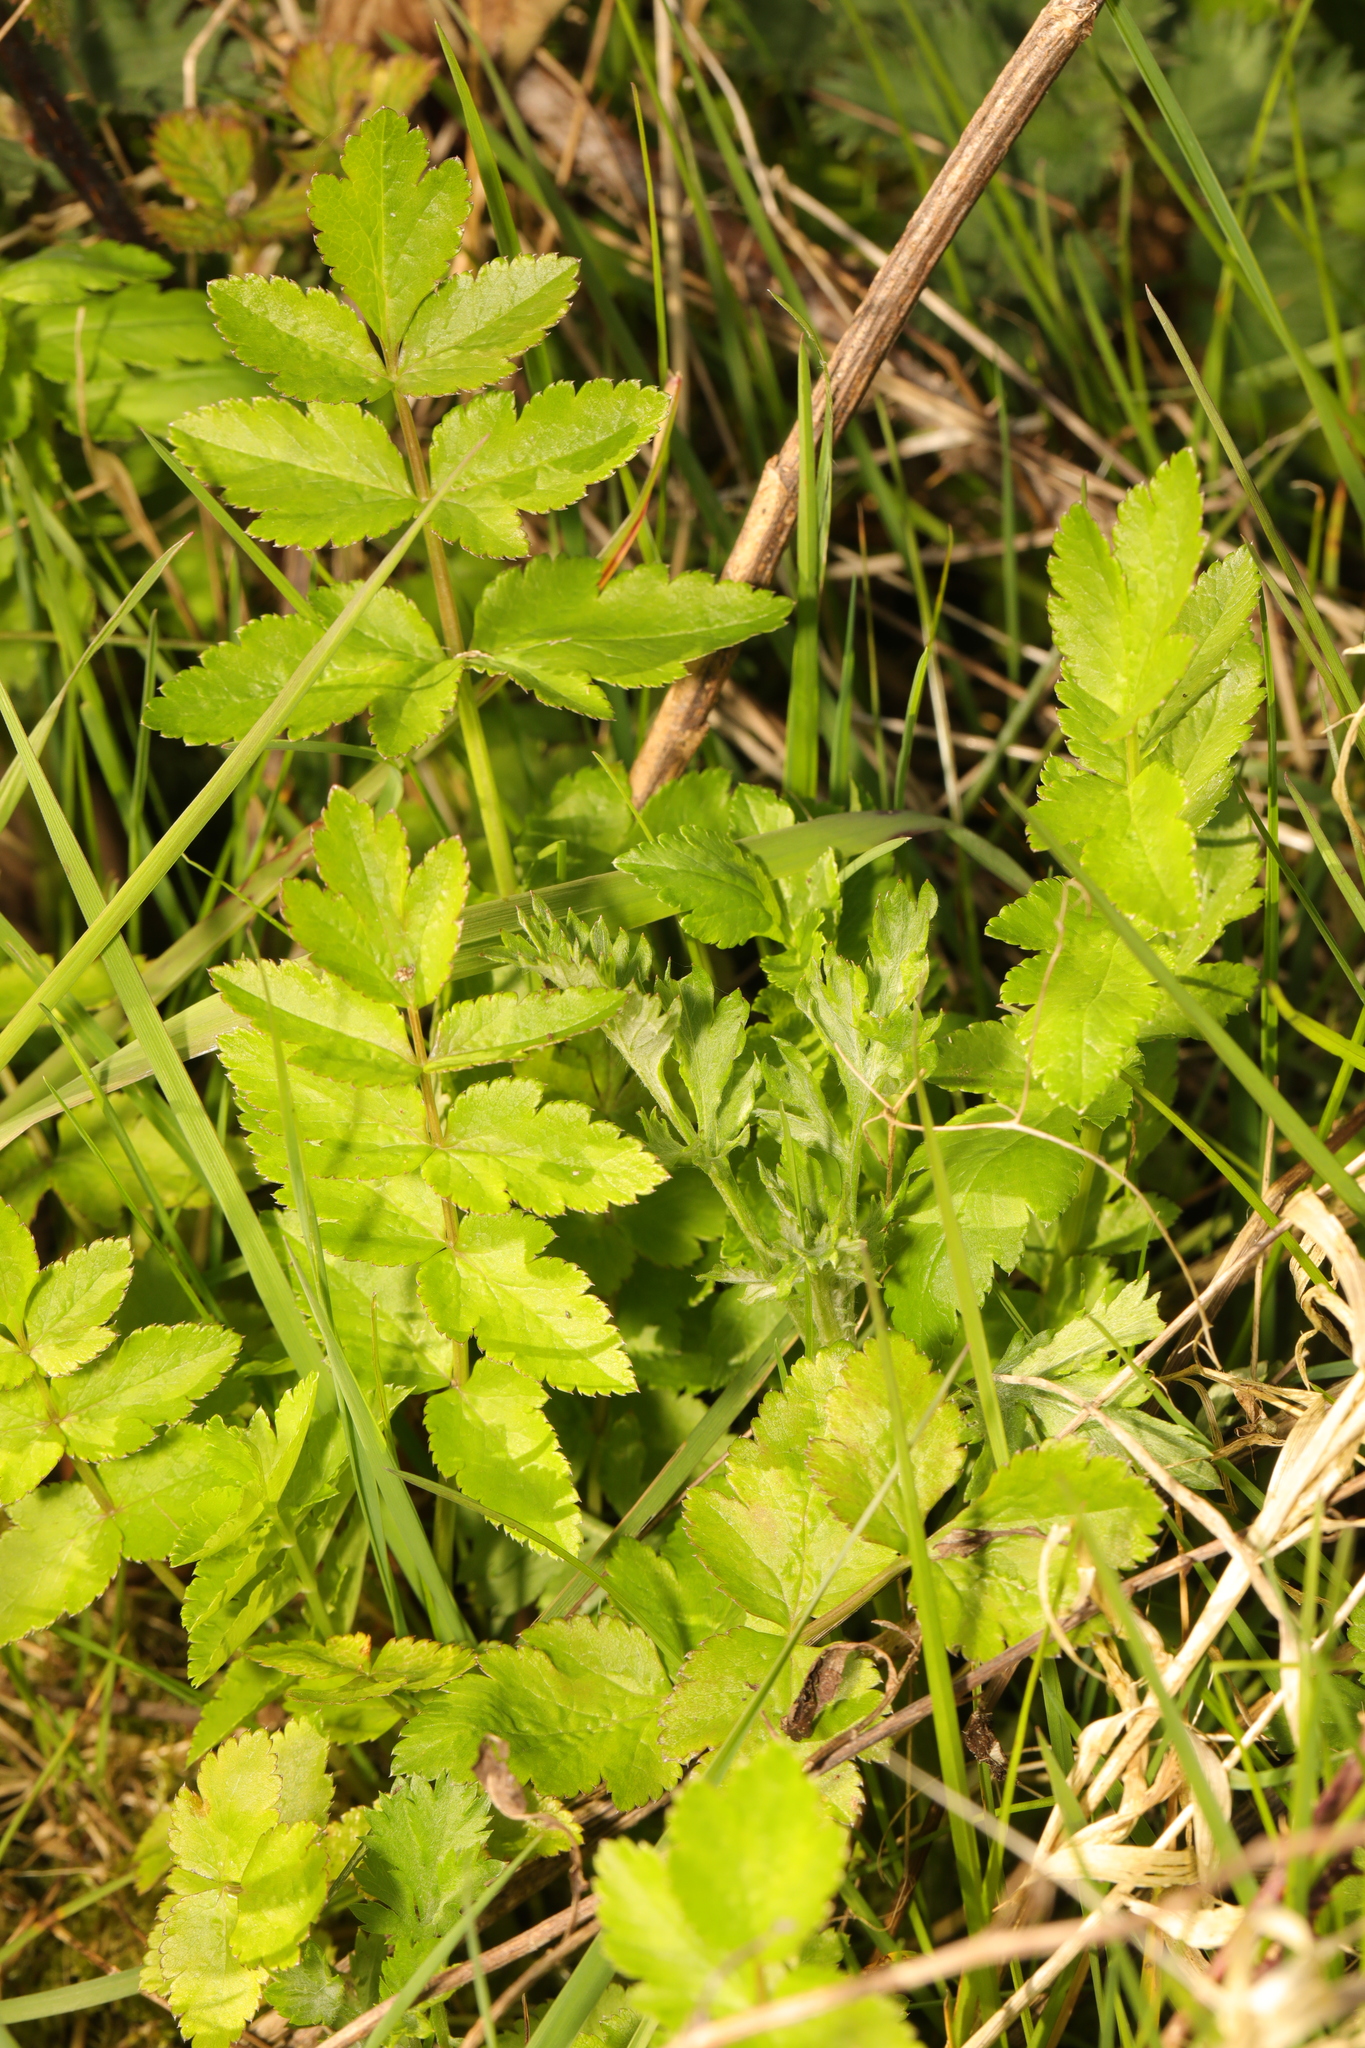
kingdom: Plantae
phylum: Tracheophyta
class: Magnoliopsida
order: Apiales
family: Apiaceae
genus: Pastinaca
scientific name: Pastinaca sativa
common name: Wild parsnip
